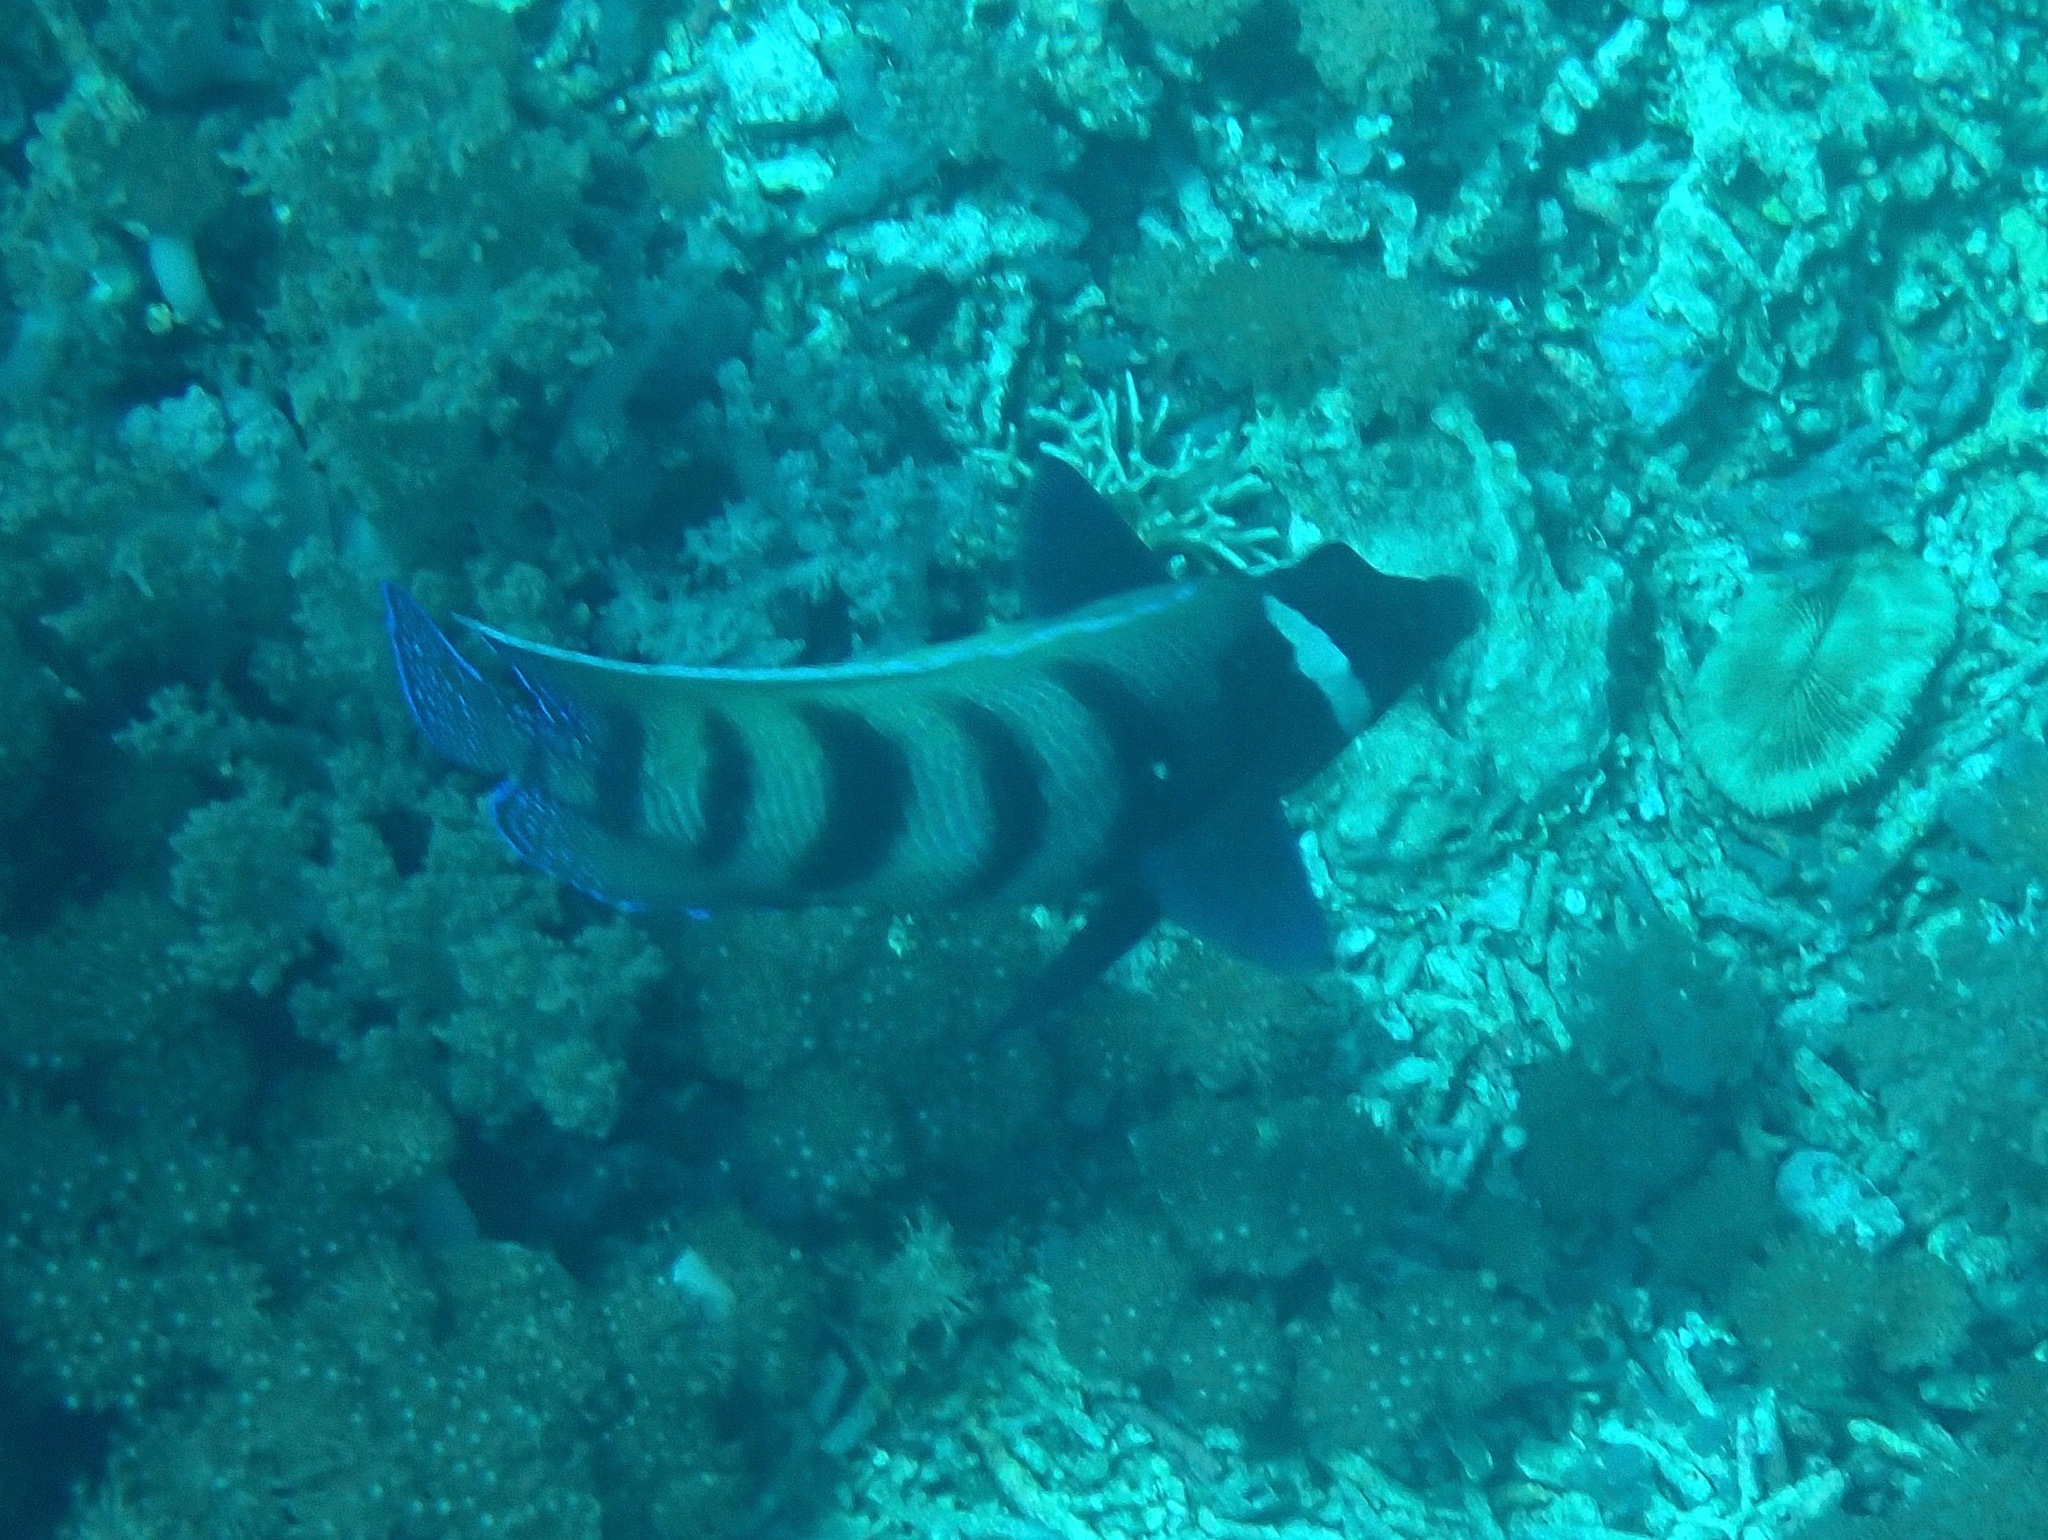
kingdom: Animalia
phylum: Chordata
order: Perciformes
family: Pomacanthidae
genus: Pomacanthus
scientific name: Pomacanthus sexstriatus
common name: Six-banded angelfish
